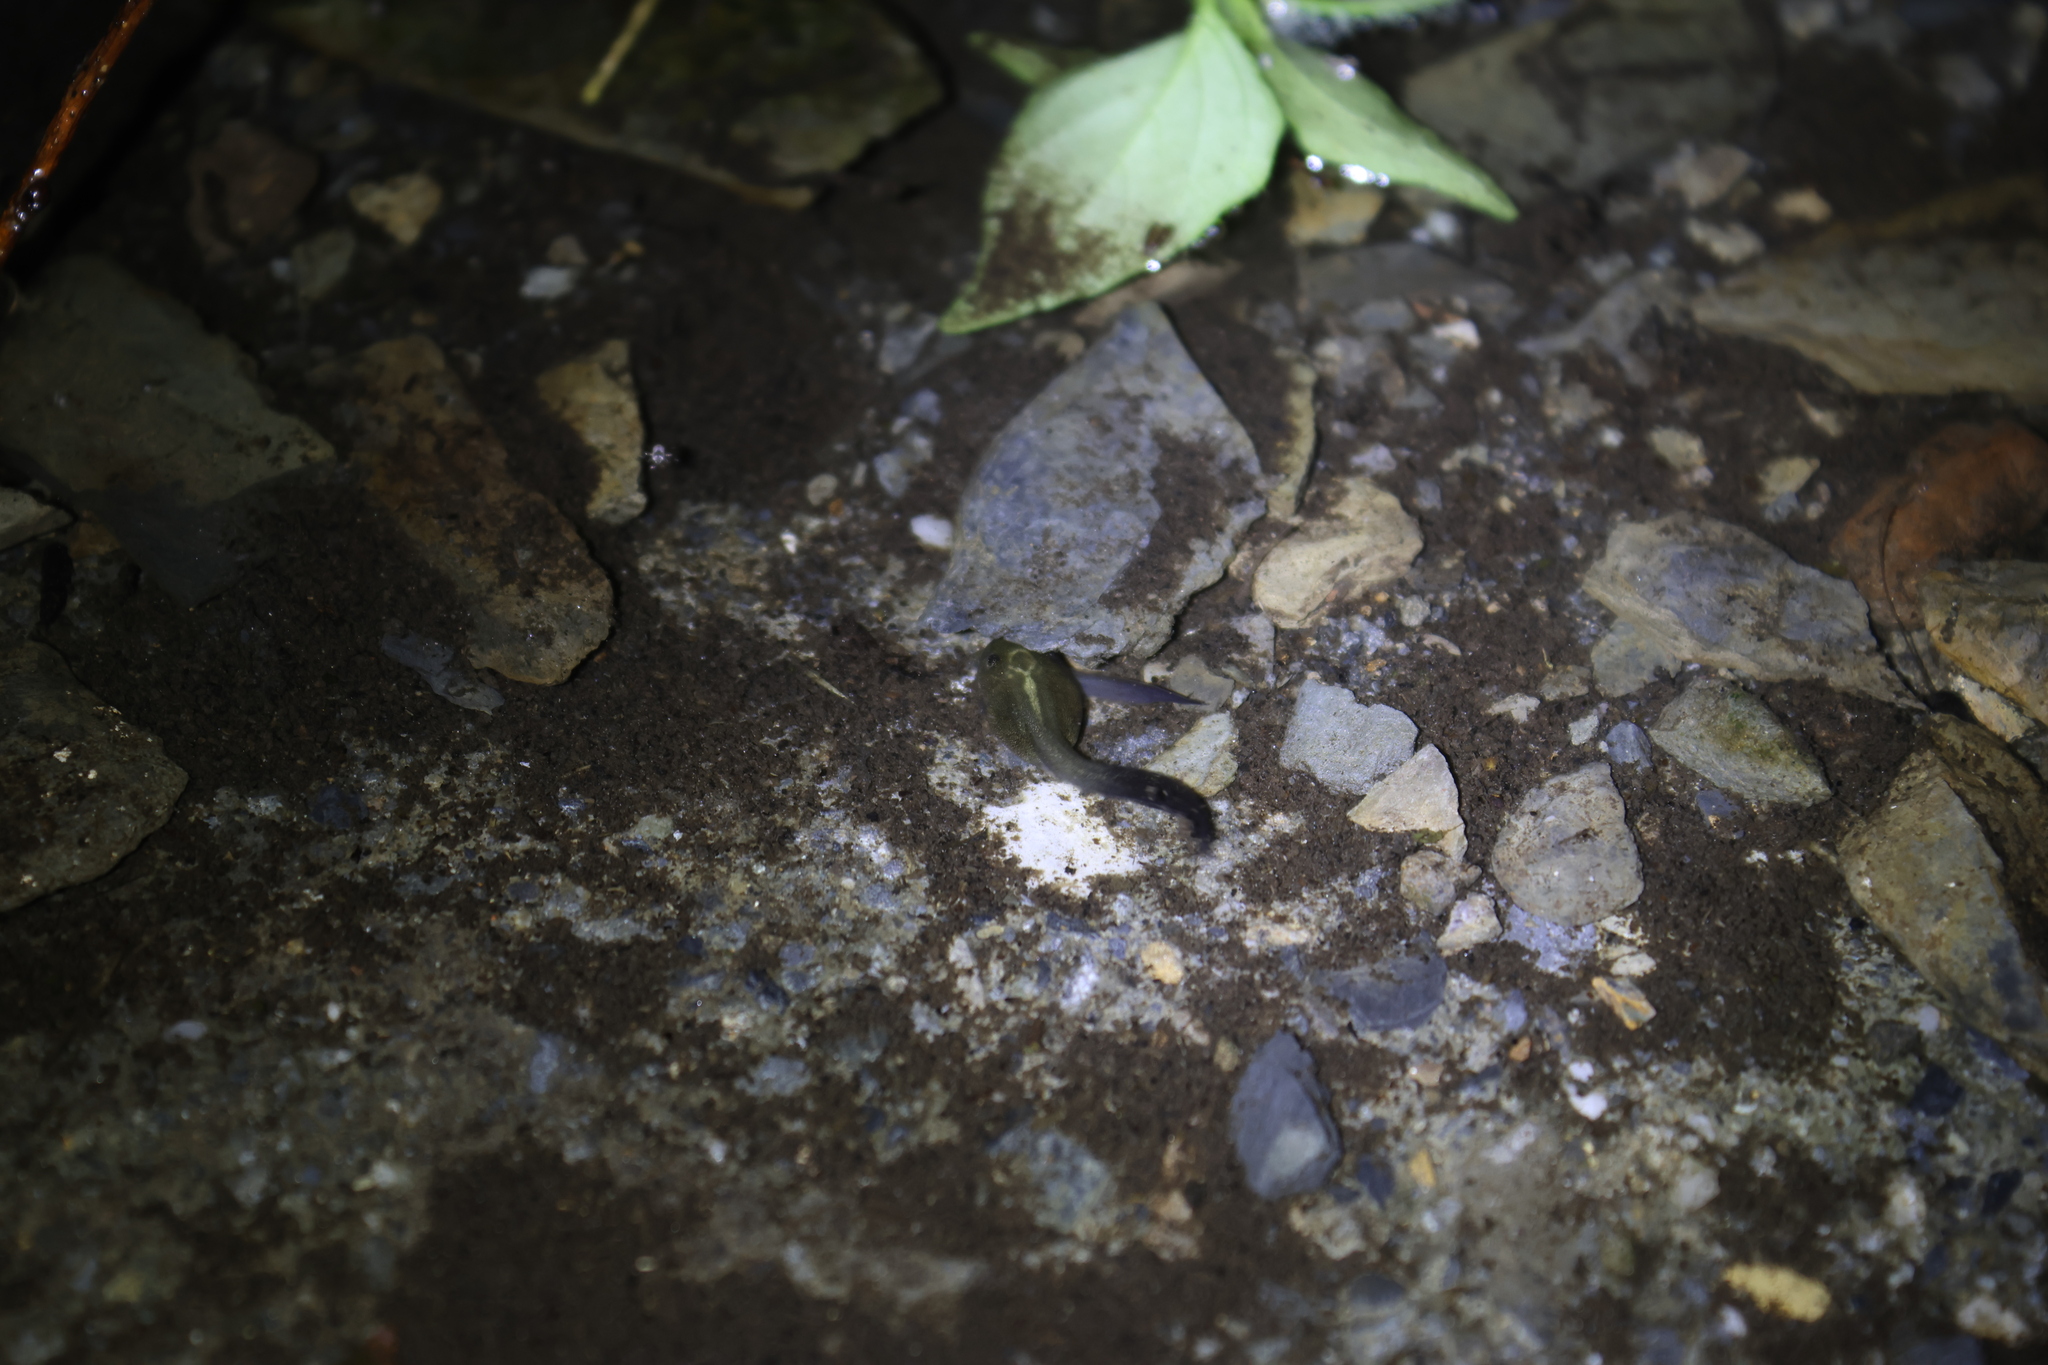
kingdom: Animalia
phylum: Chordata
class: Amphibia
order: Anura
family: Rhacophoridae
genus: Zhangixalus
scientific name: Zhangixalus moltrechti
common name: Moltrecht's treefrog
